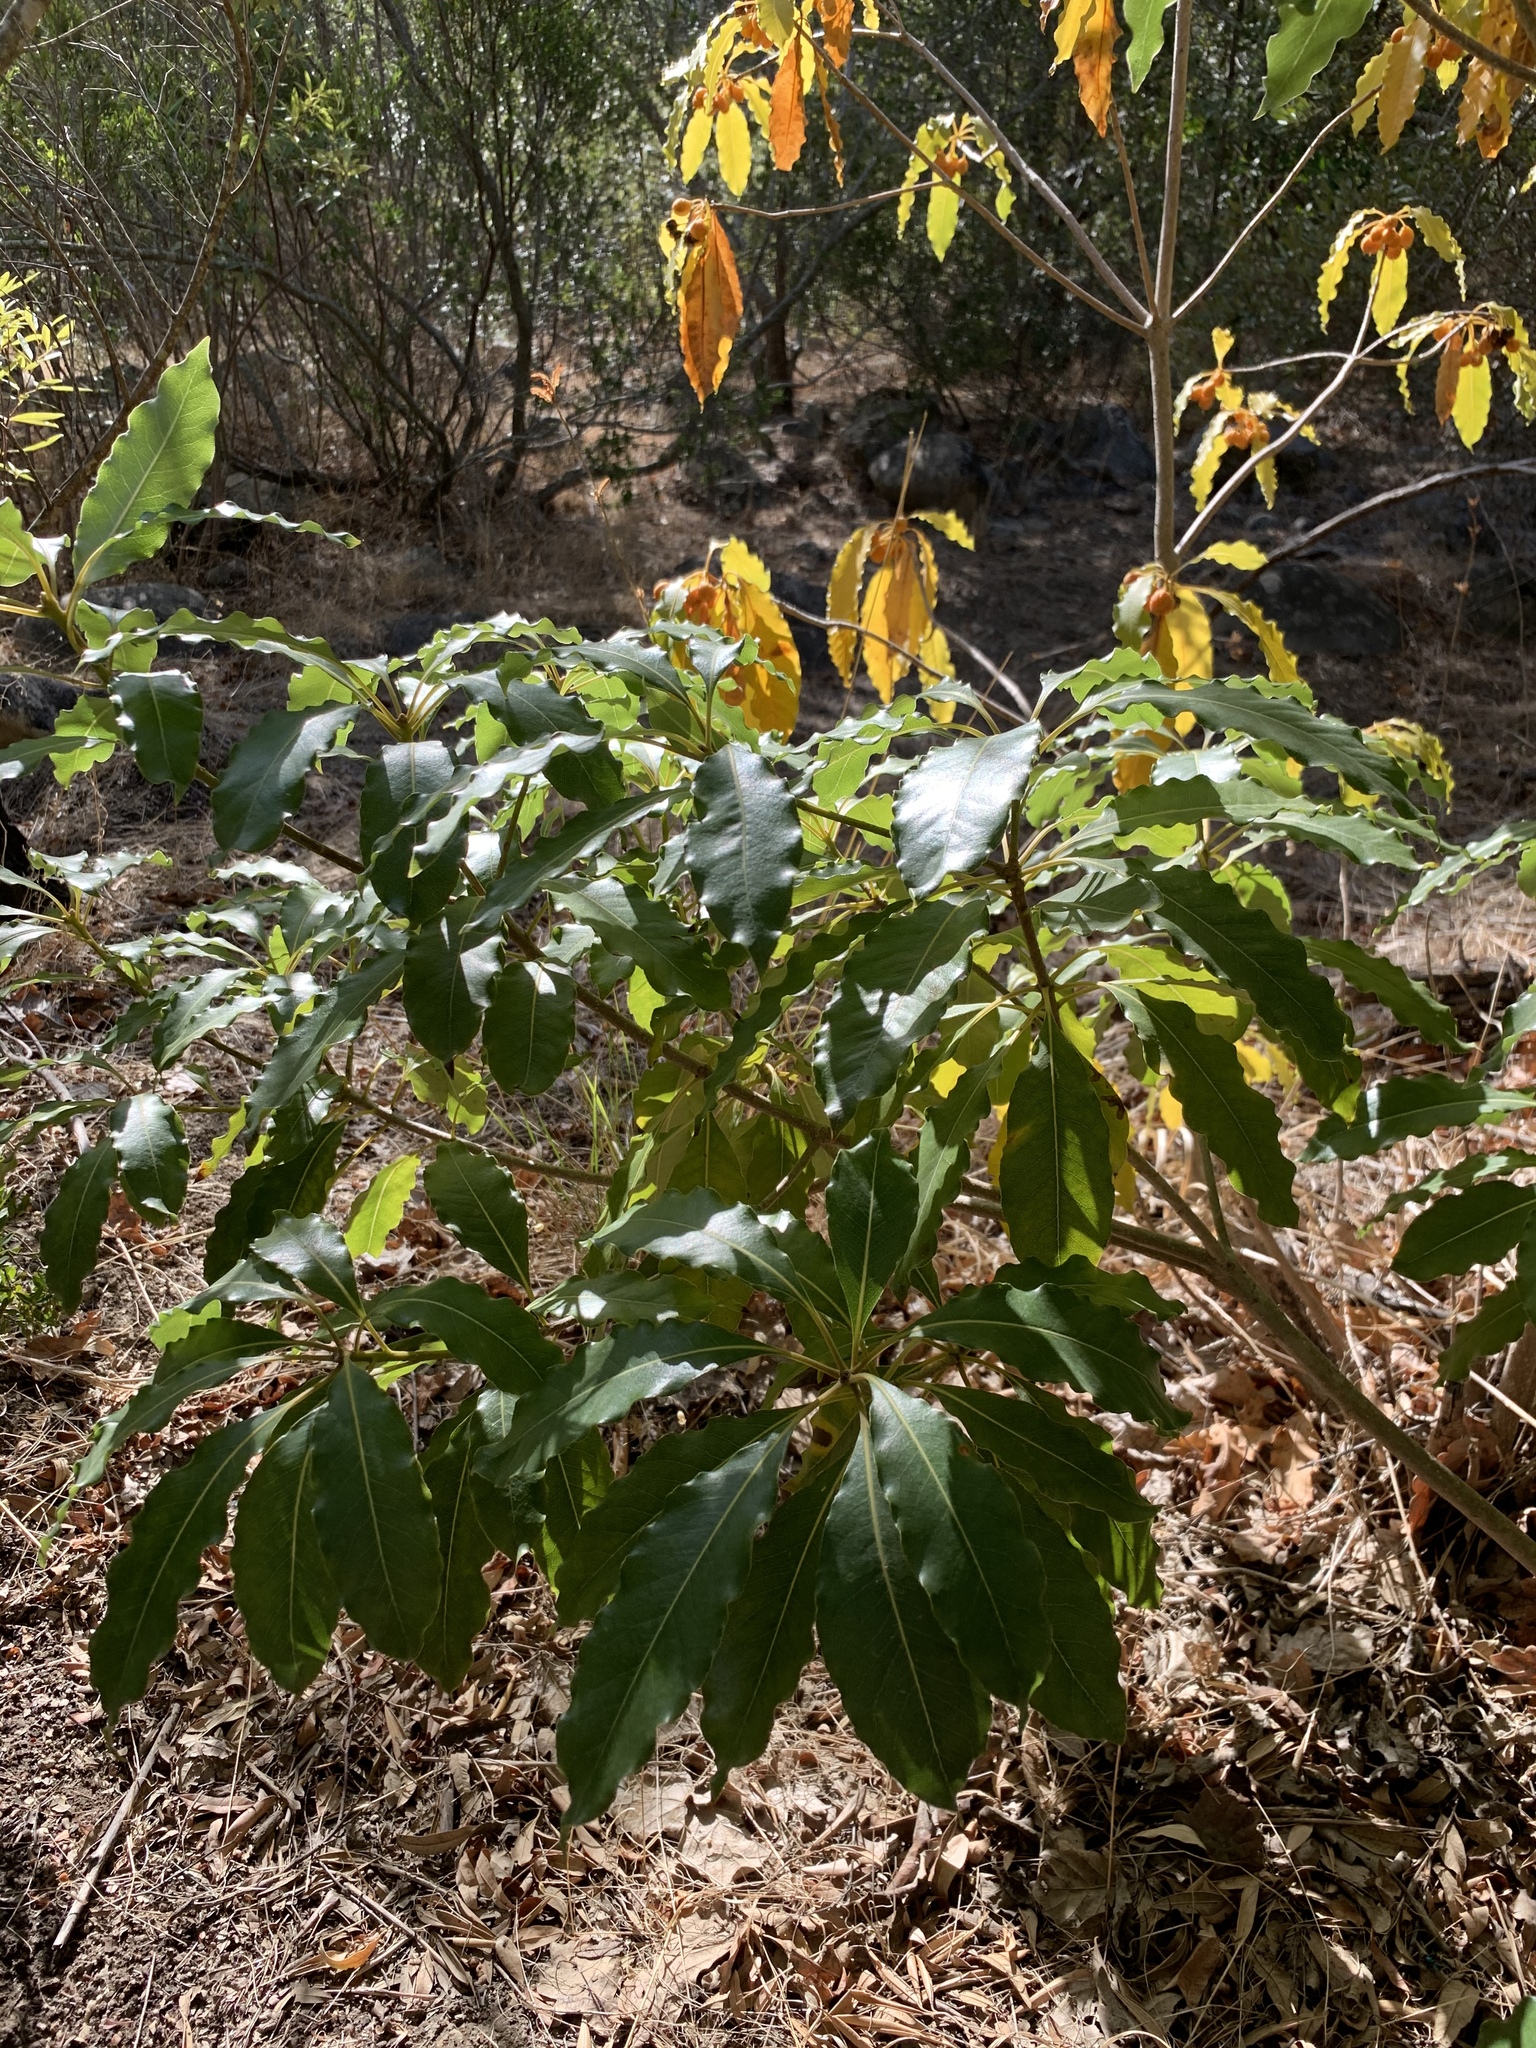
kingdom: Plantae
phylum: Tracheophyta
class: Magnoliopsida
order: Apiales
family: Pittosporaceae
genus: Pittosporum
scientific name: Pittosporum undulatum
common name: Australian cheesewood
